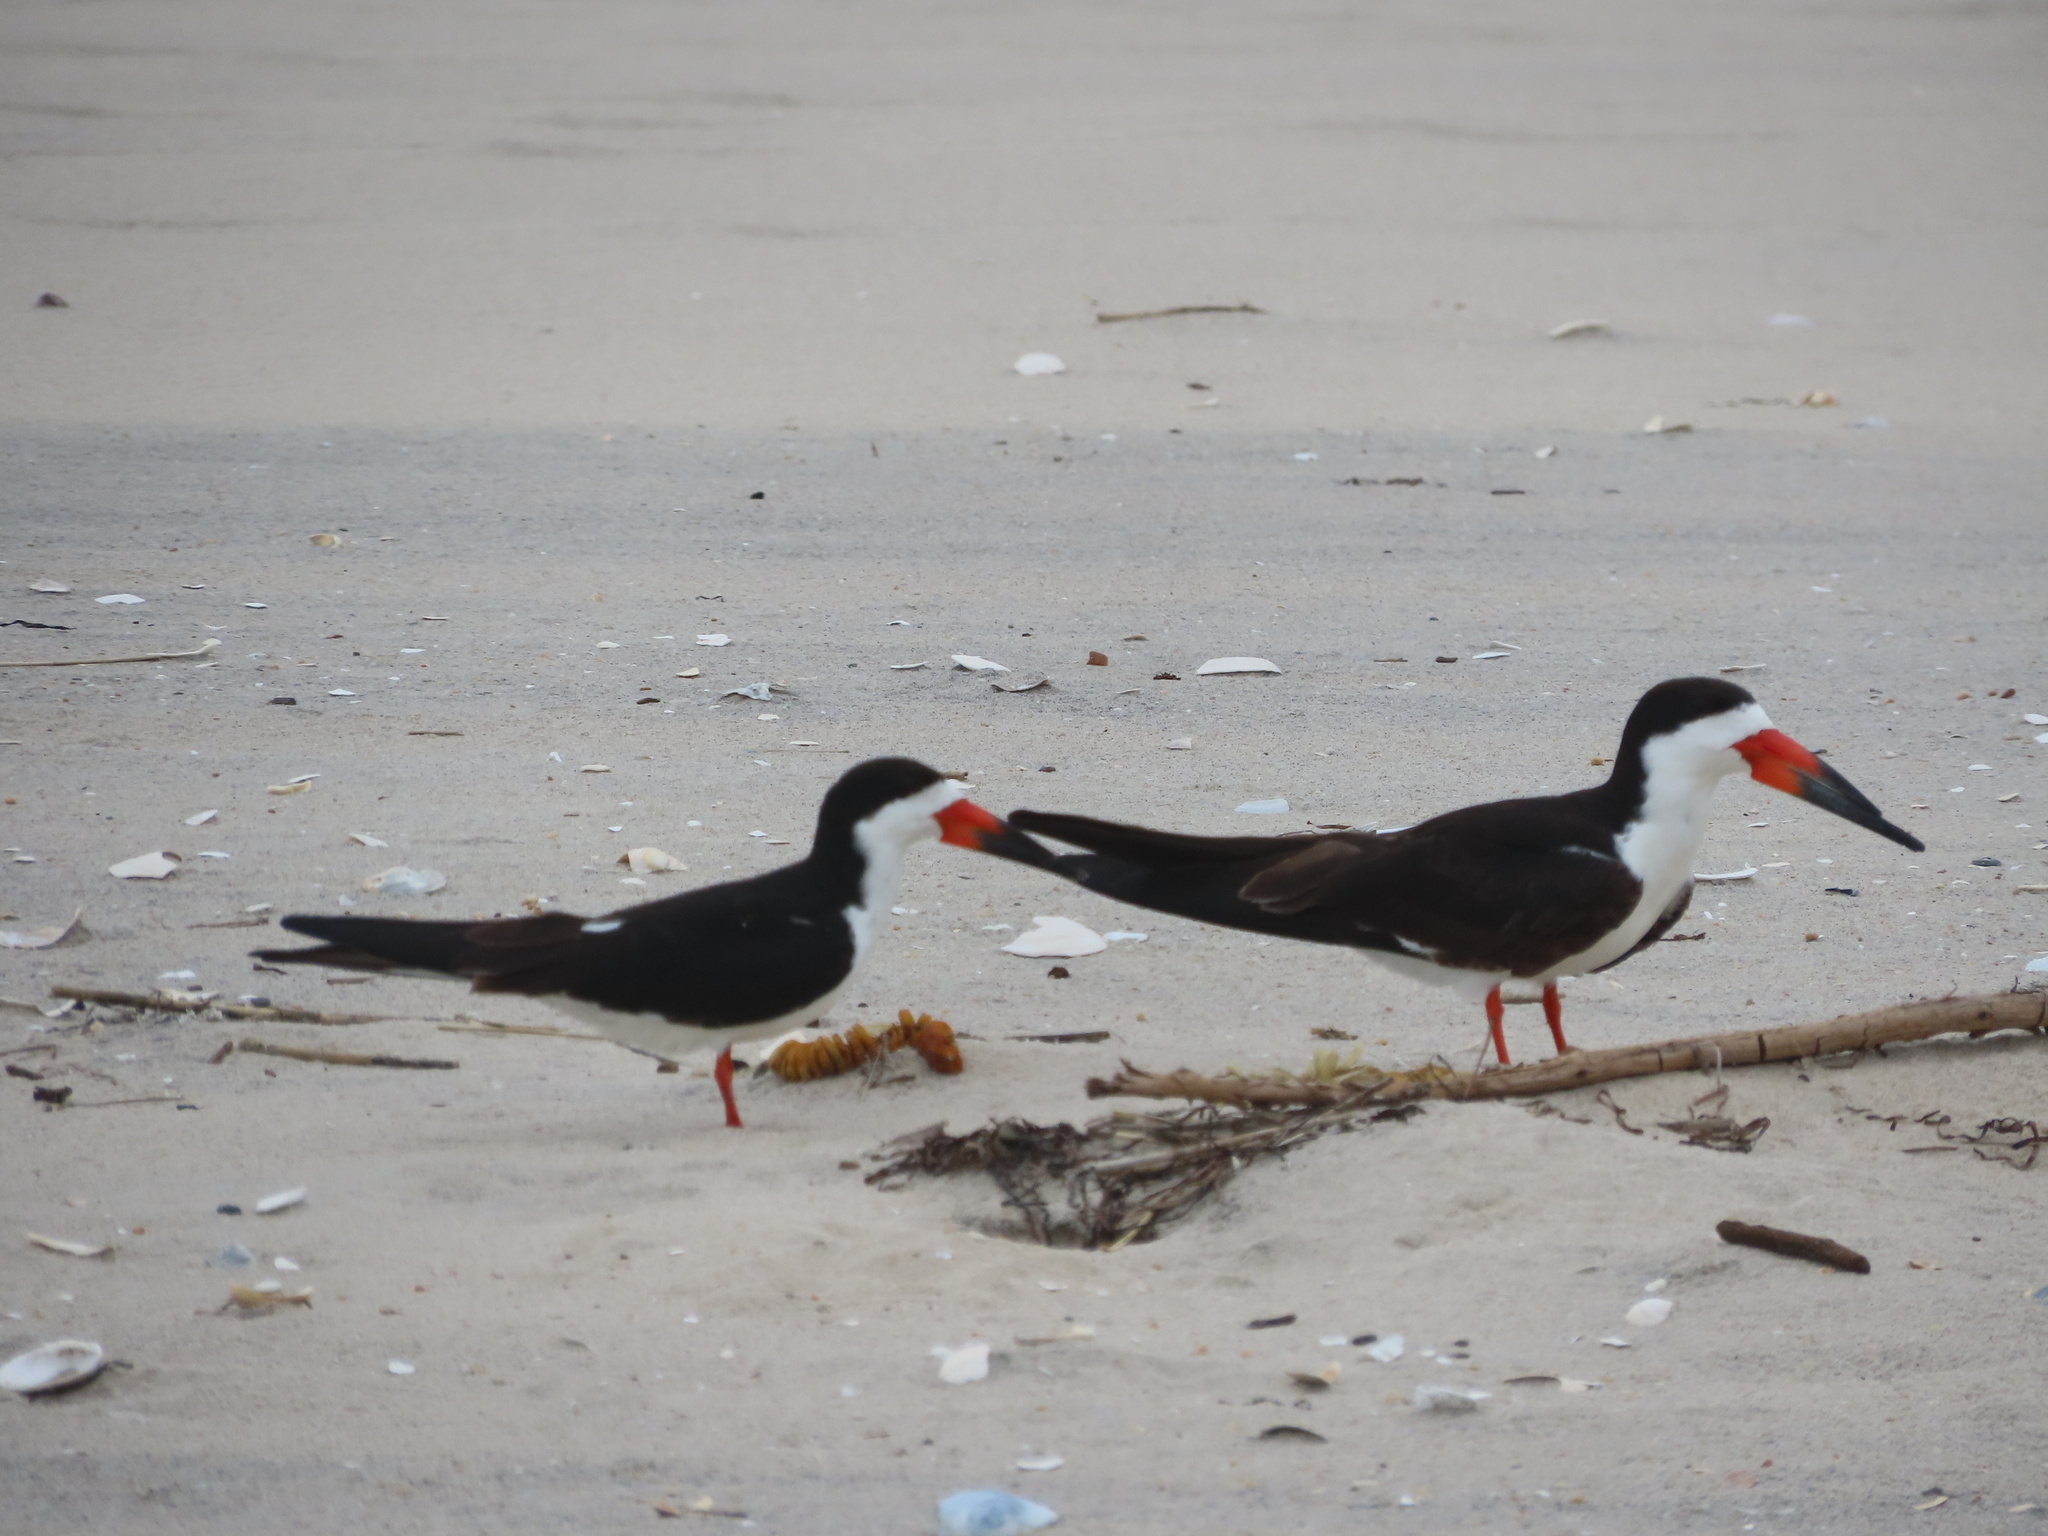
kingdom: Animalia
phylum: Chordata
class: Aves
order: Charadriiformes
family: Laridae
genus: Rynchops
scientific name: Rynchops niger
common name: Black skimmer
